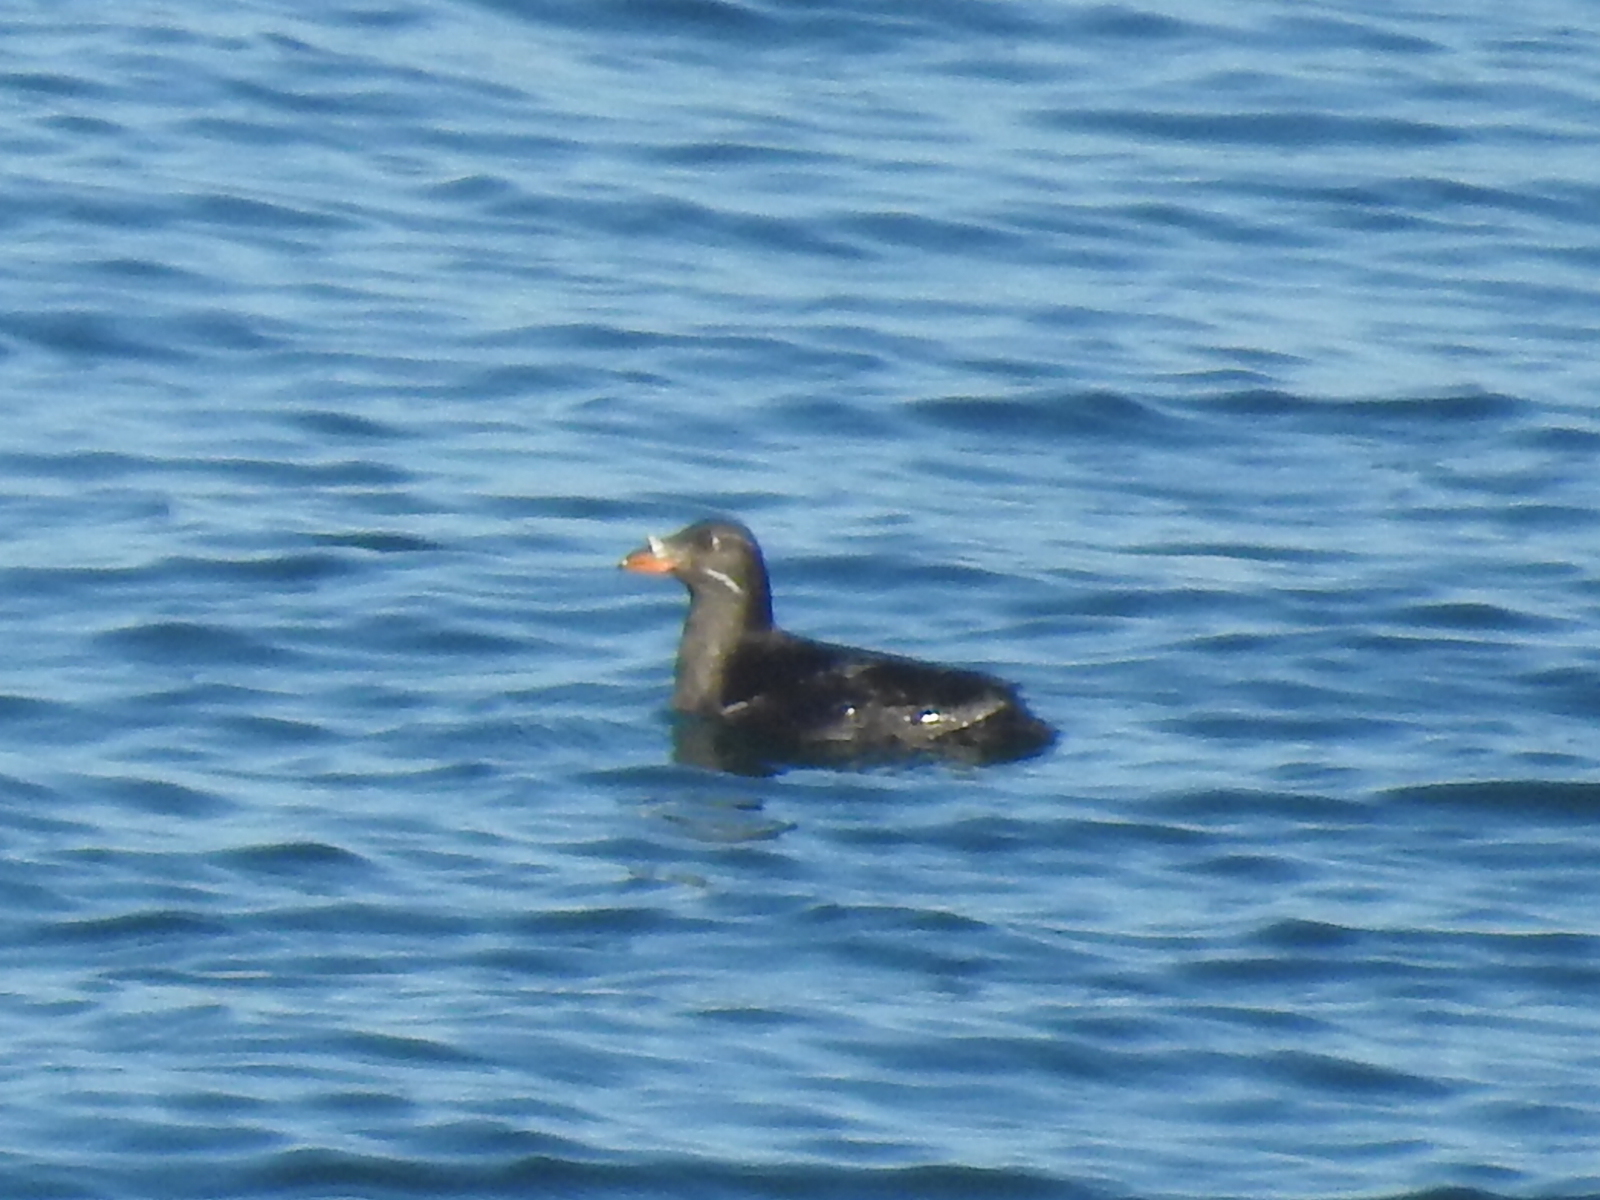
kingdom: Animalia
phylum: Chordata
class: Aves
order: Charadriiformes
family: Alcidae
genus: Cerorhinca
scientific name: Cerorhinca monocerata
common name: Rhinoceros auklet
